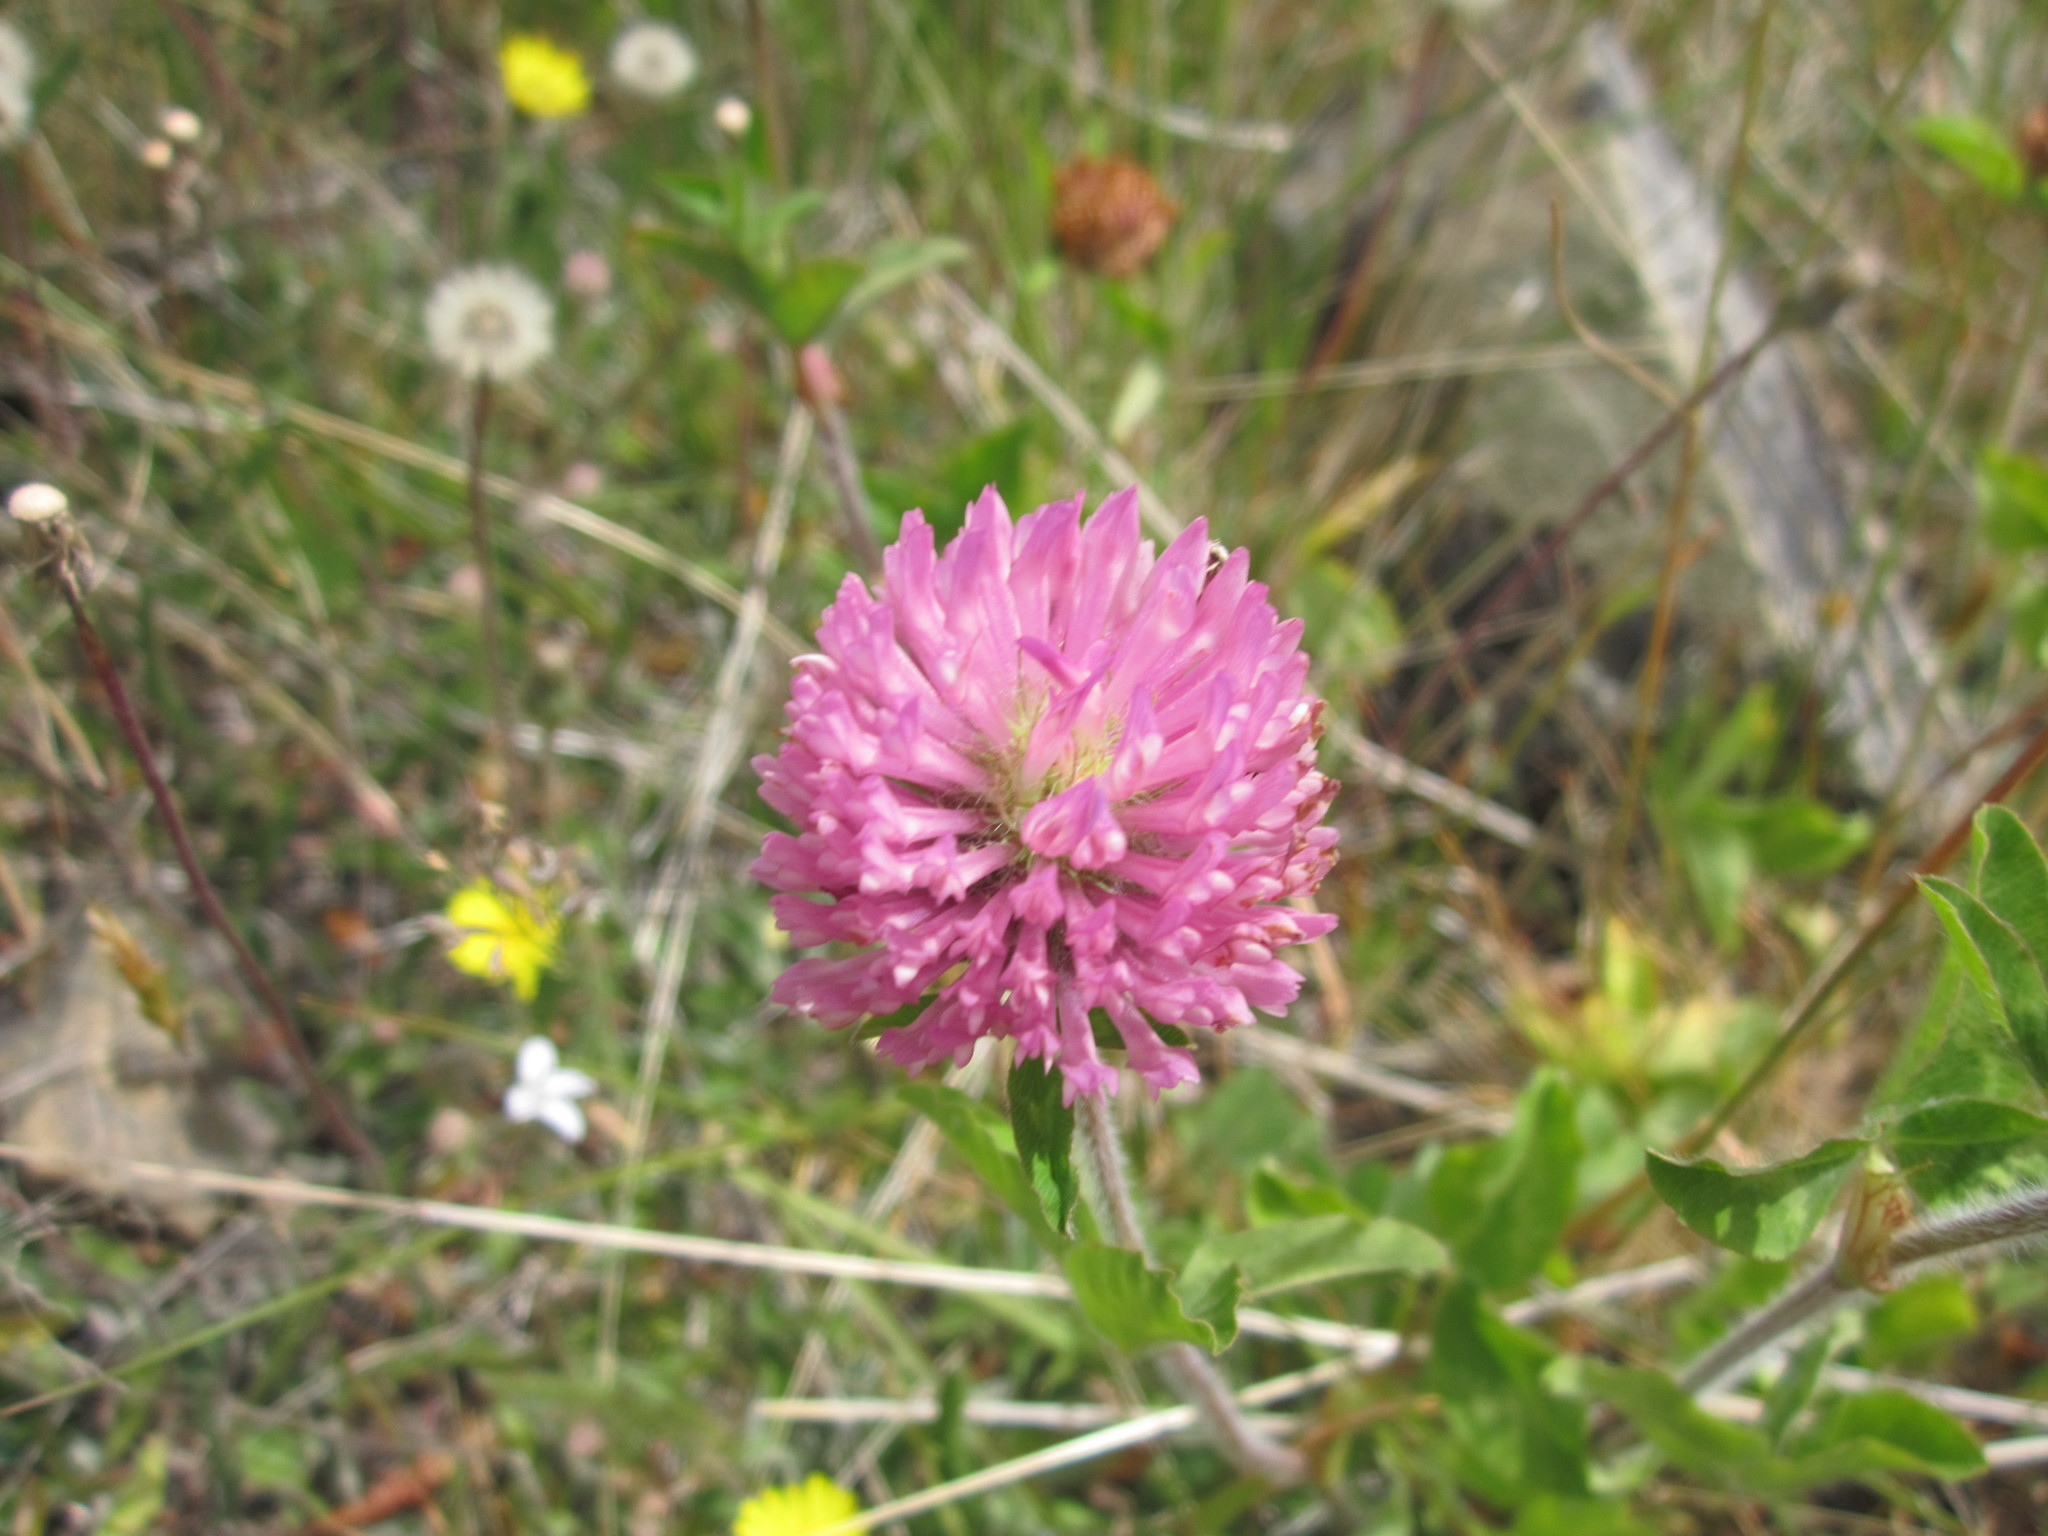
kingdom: Plantae
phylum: Tracheophyta
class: Magnoliopsida
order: Fabales
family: Fabaceae
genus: Trifolium
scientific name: Trifolium pratense
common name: Red clover
